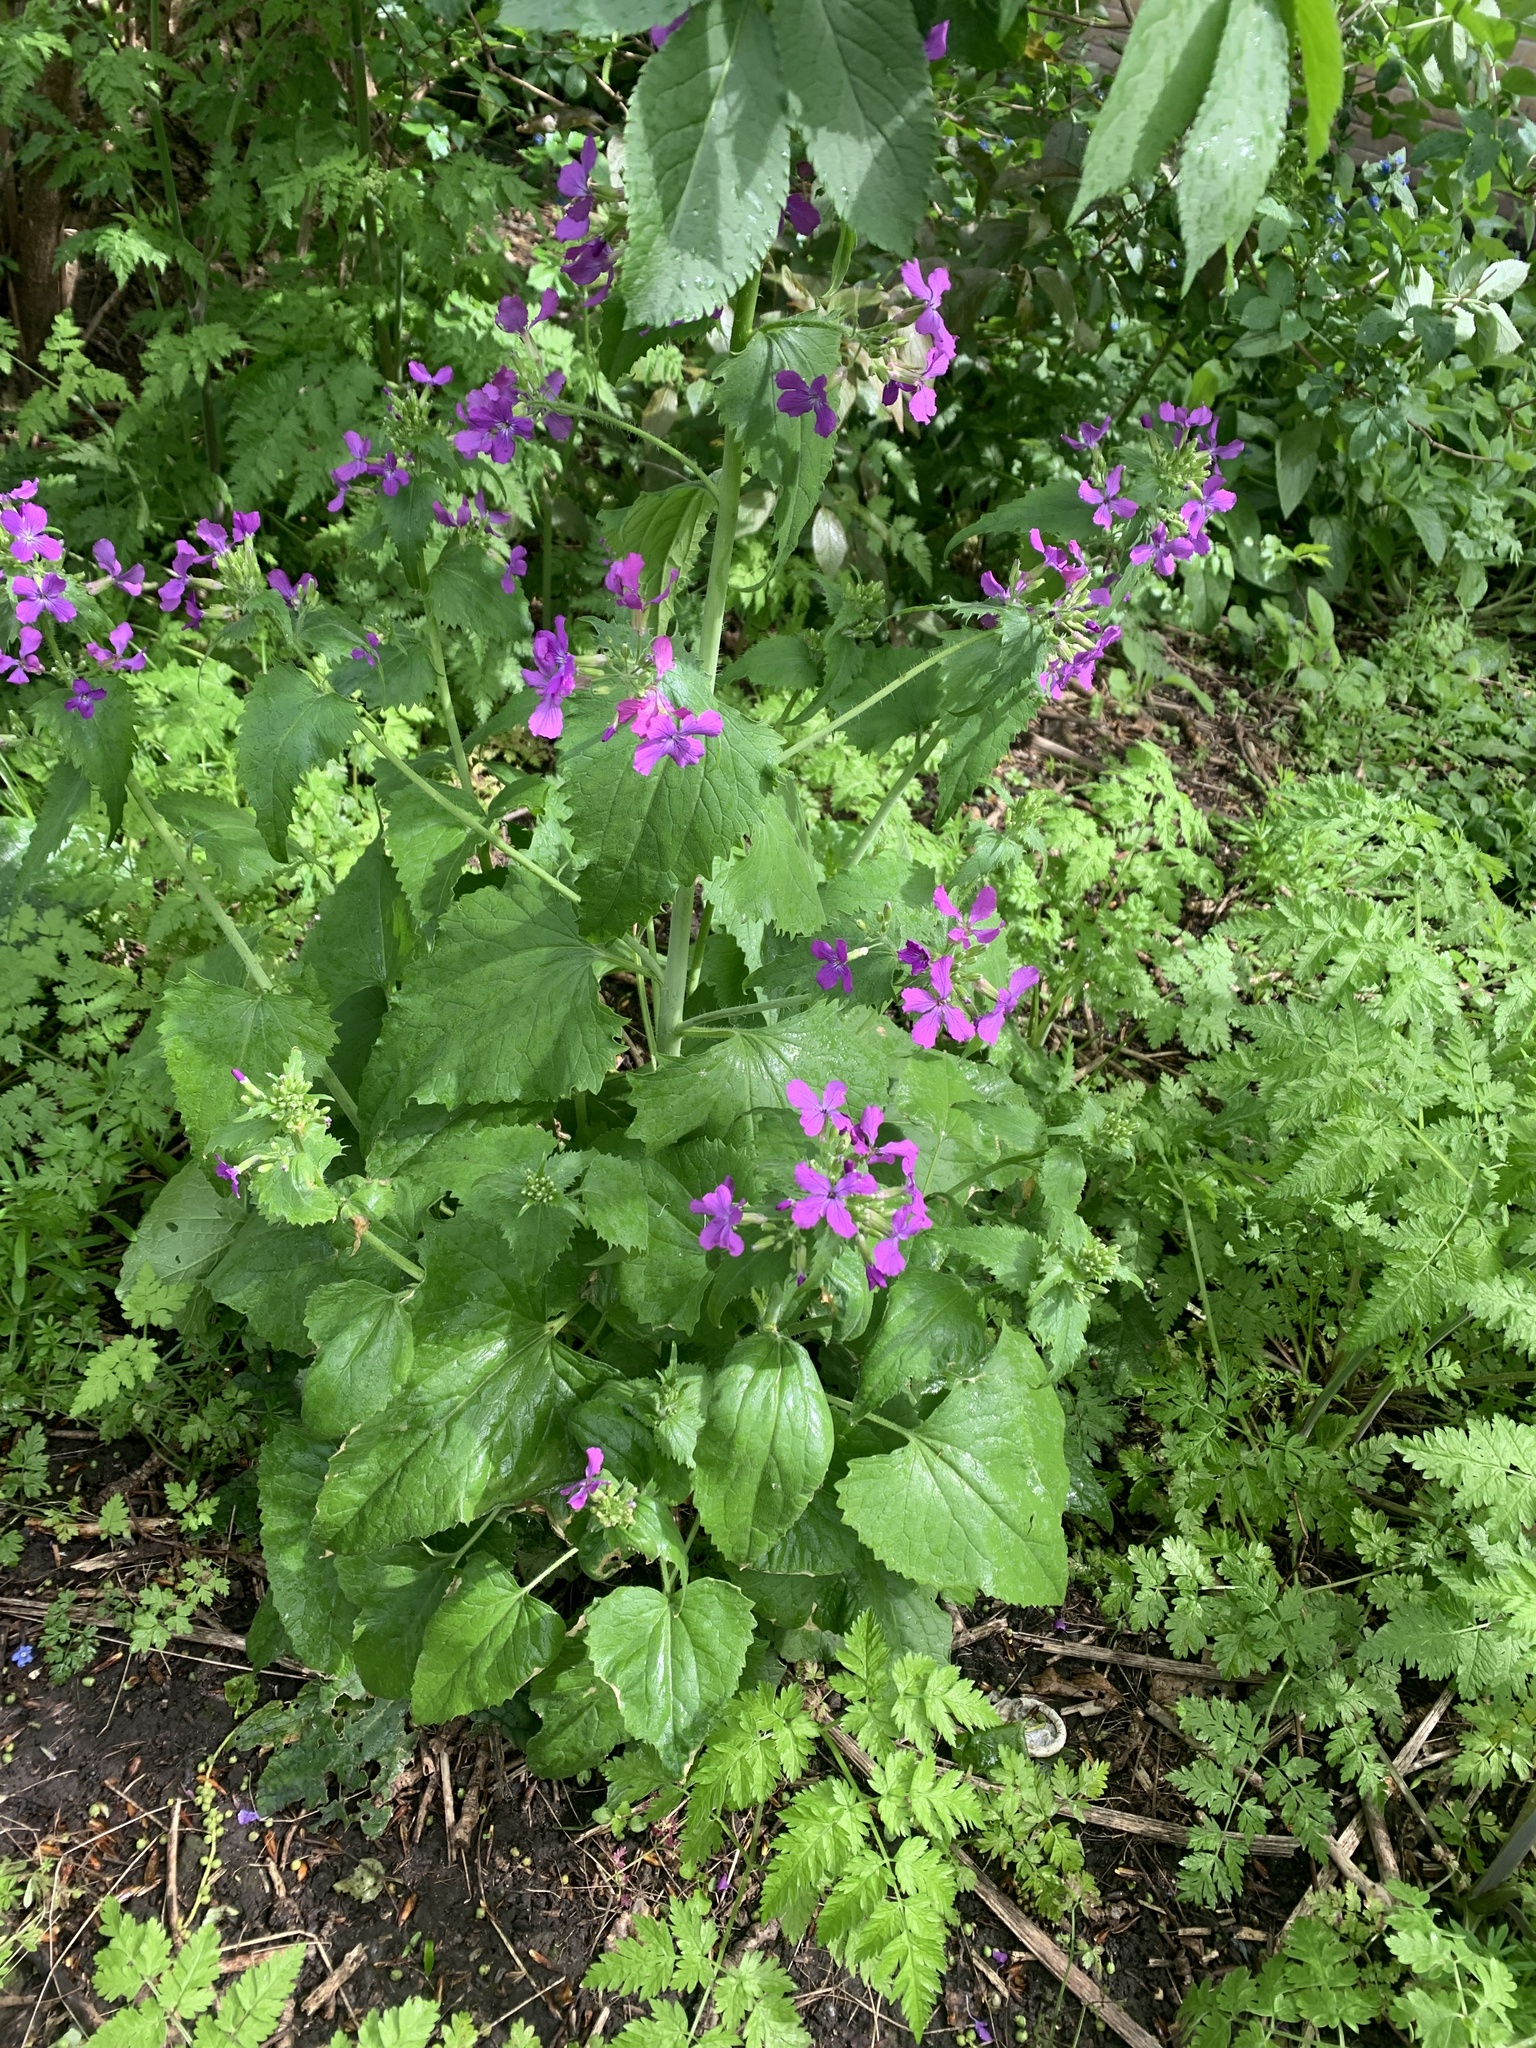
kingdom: Plantae
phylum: Tracheophyta
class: Magnoliopsida
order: Brassicales
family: Brassicaceae
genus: Lunaria
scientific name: Lunaria annua
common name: Honesty
